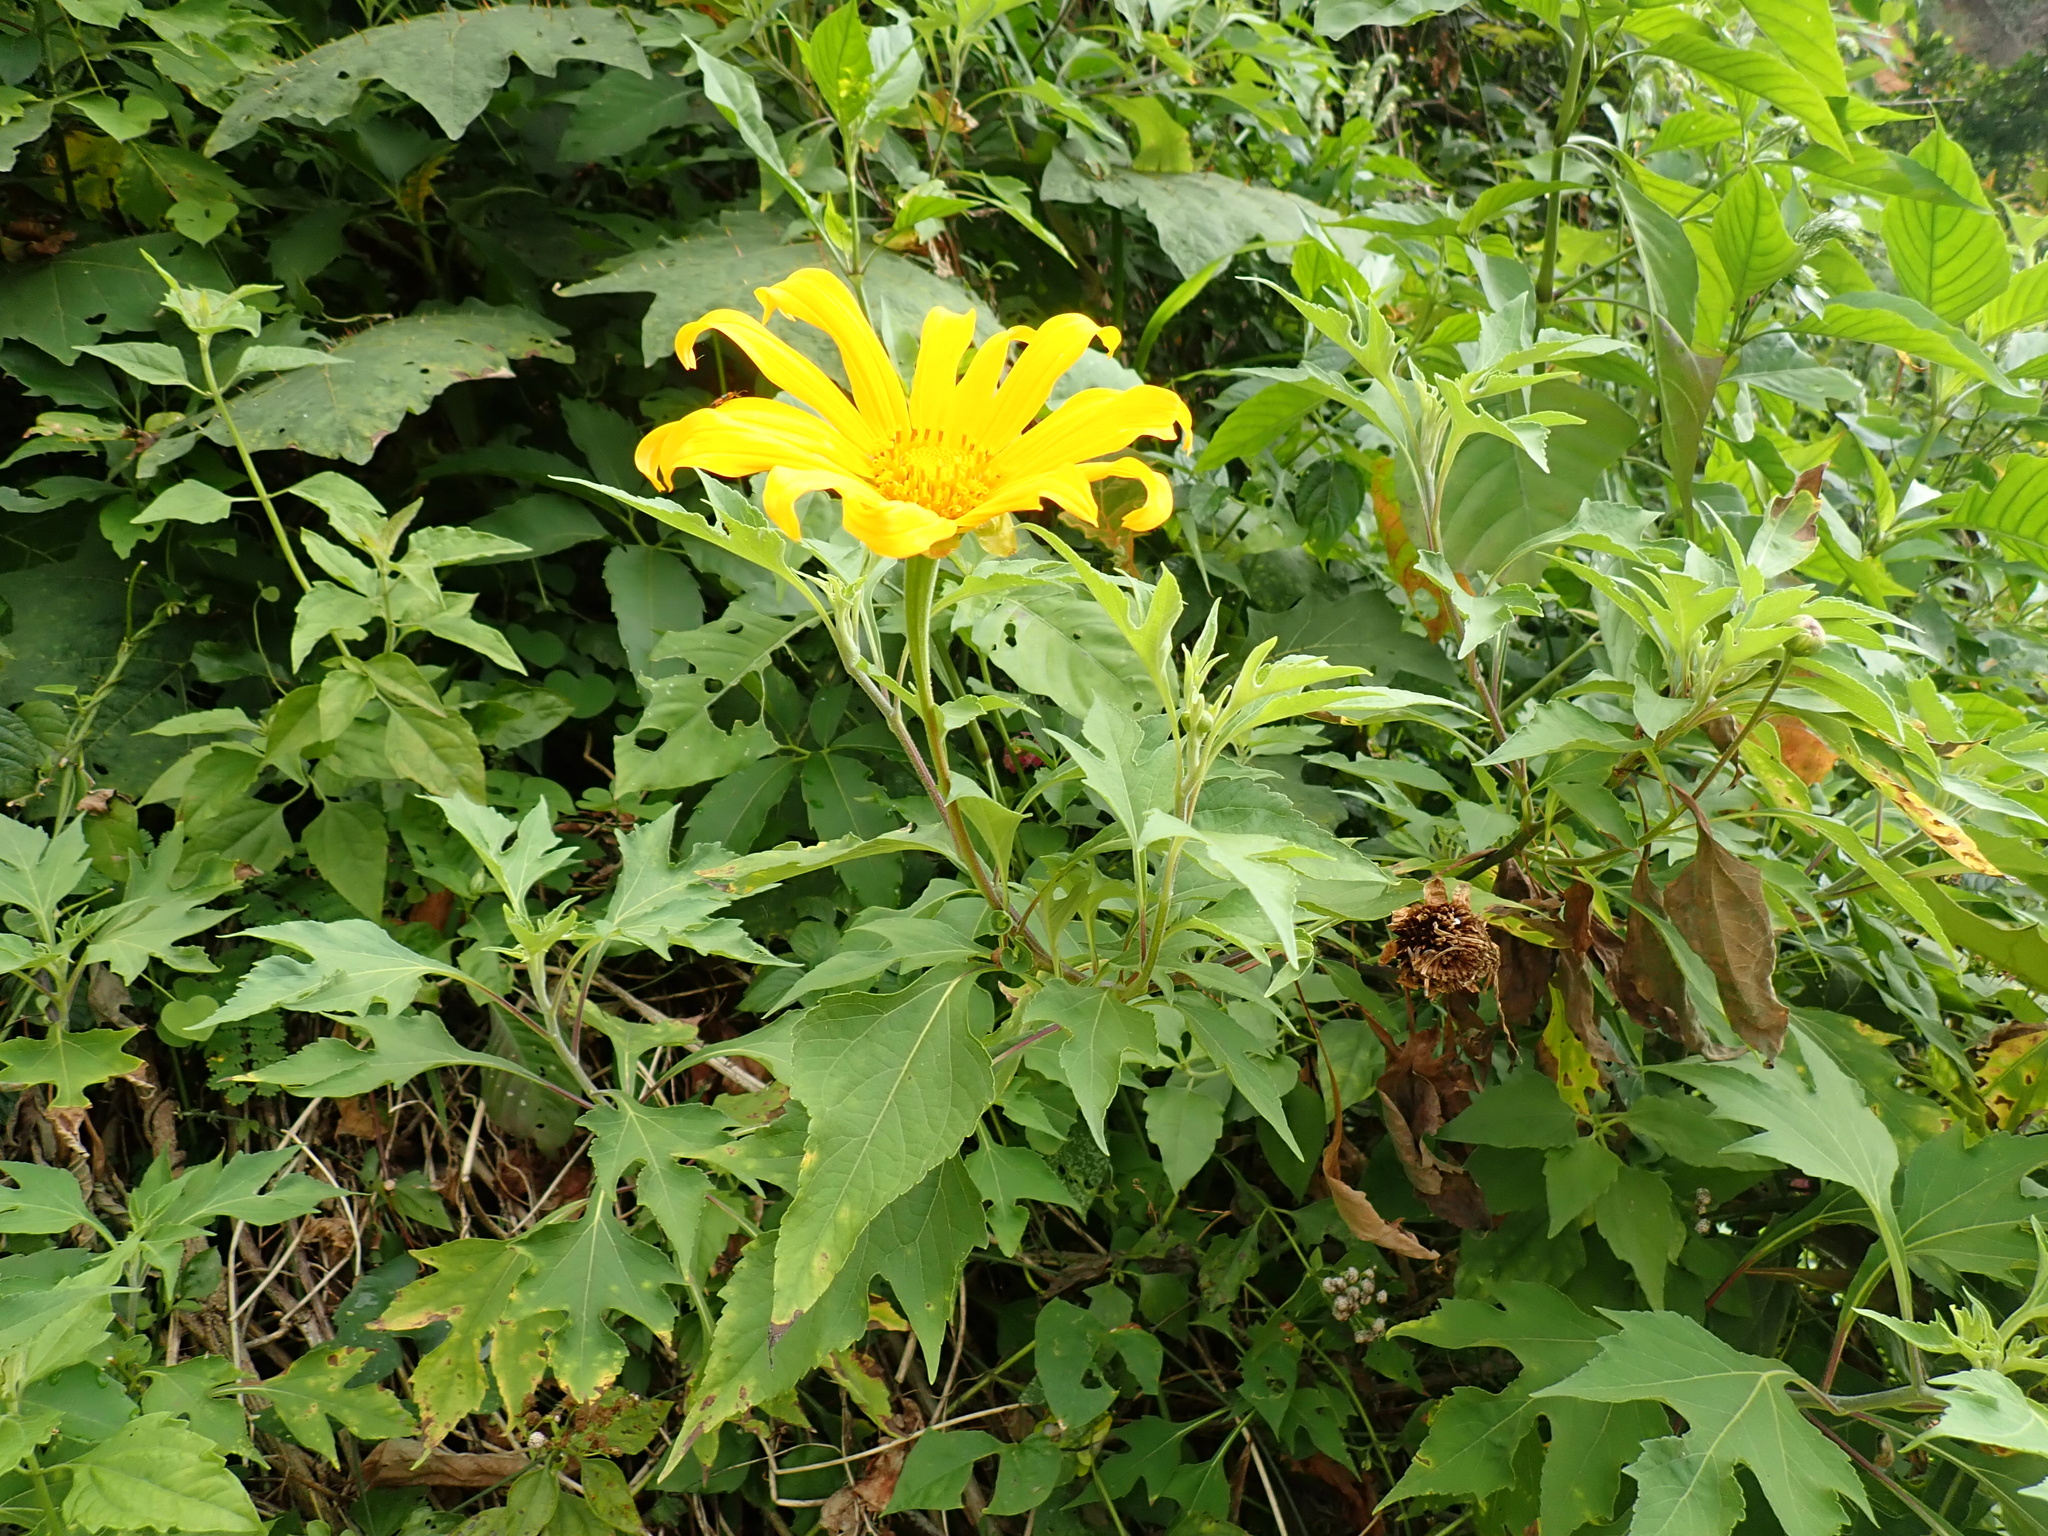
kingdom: Plantae
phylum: Tracheophyta
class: Magnoliopsida
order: Asterales
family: Asteraceae
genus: Tithonia
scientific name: Tithonia diversifolia
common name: Tree marigold
